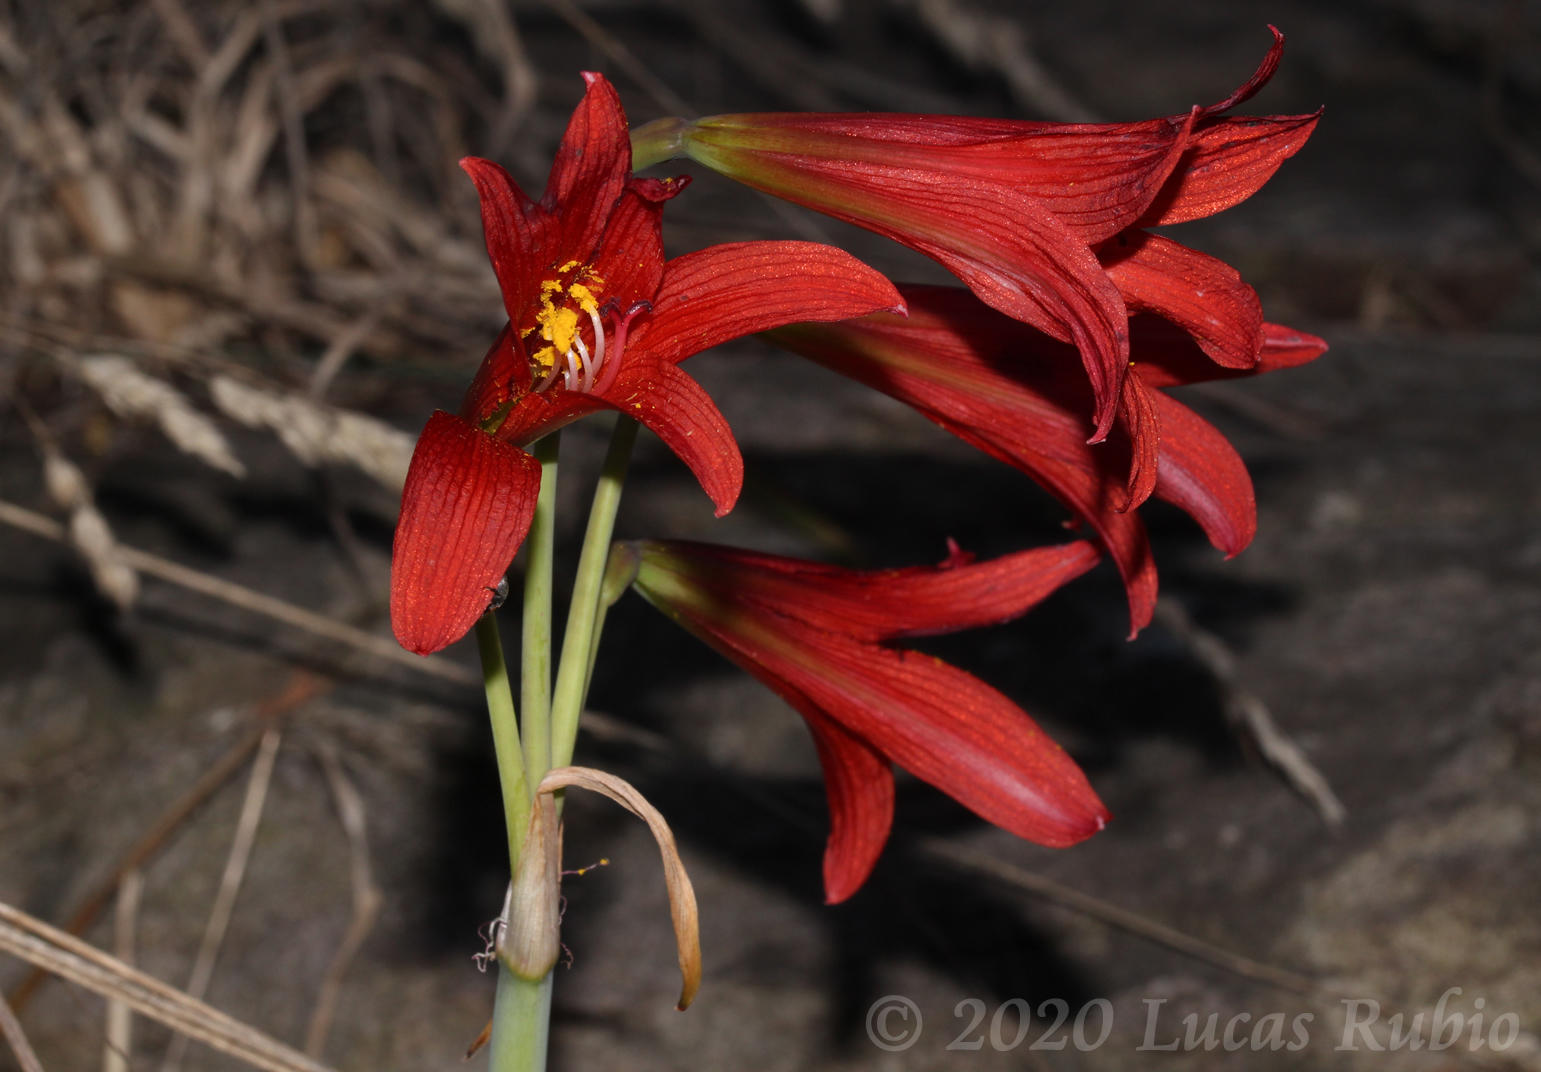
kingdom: Plantae
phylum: Tracheophyta
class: Liliopsida
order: Asparagales
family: Amaryllidaceae
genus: Zephyranthes
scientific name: Zephyranthes bifida
